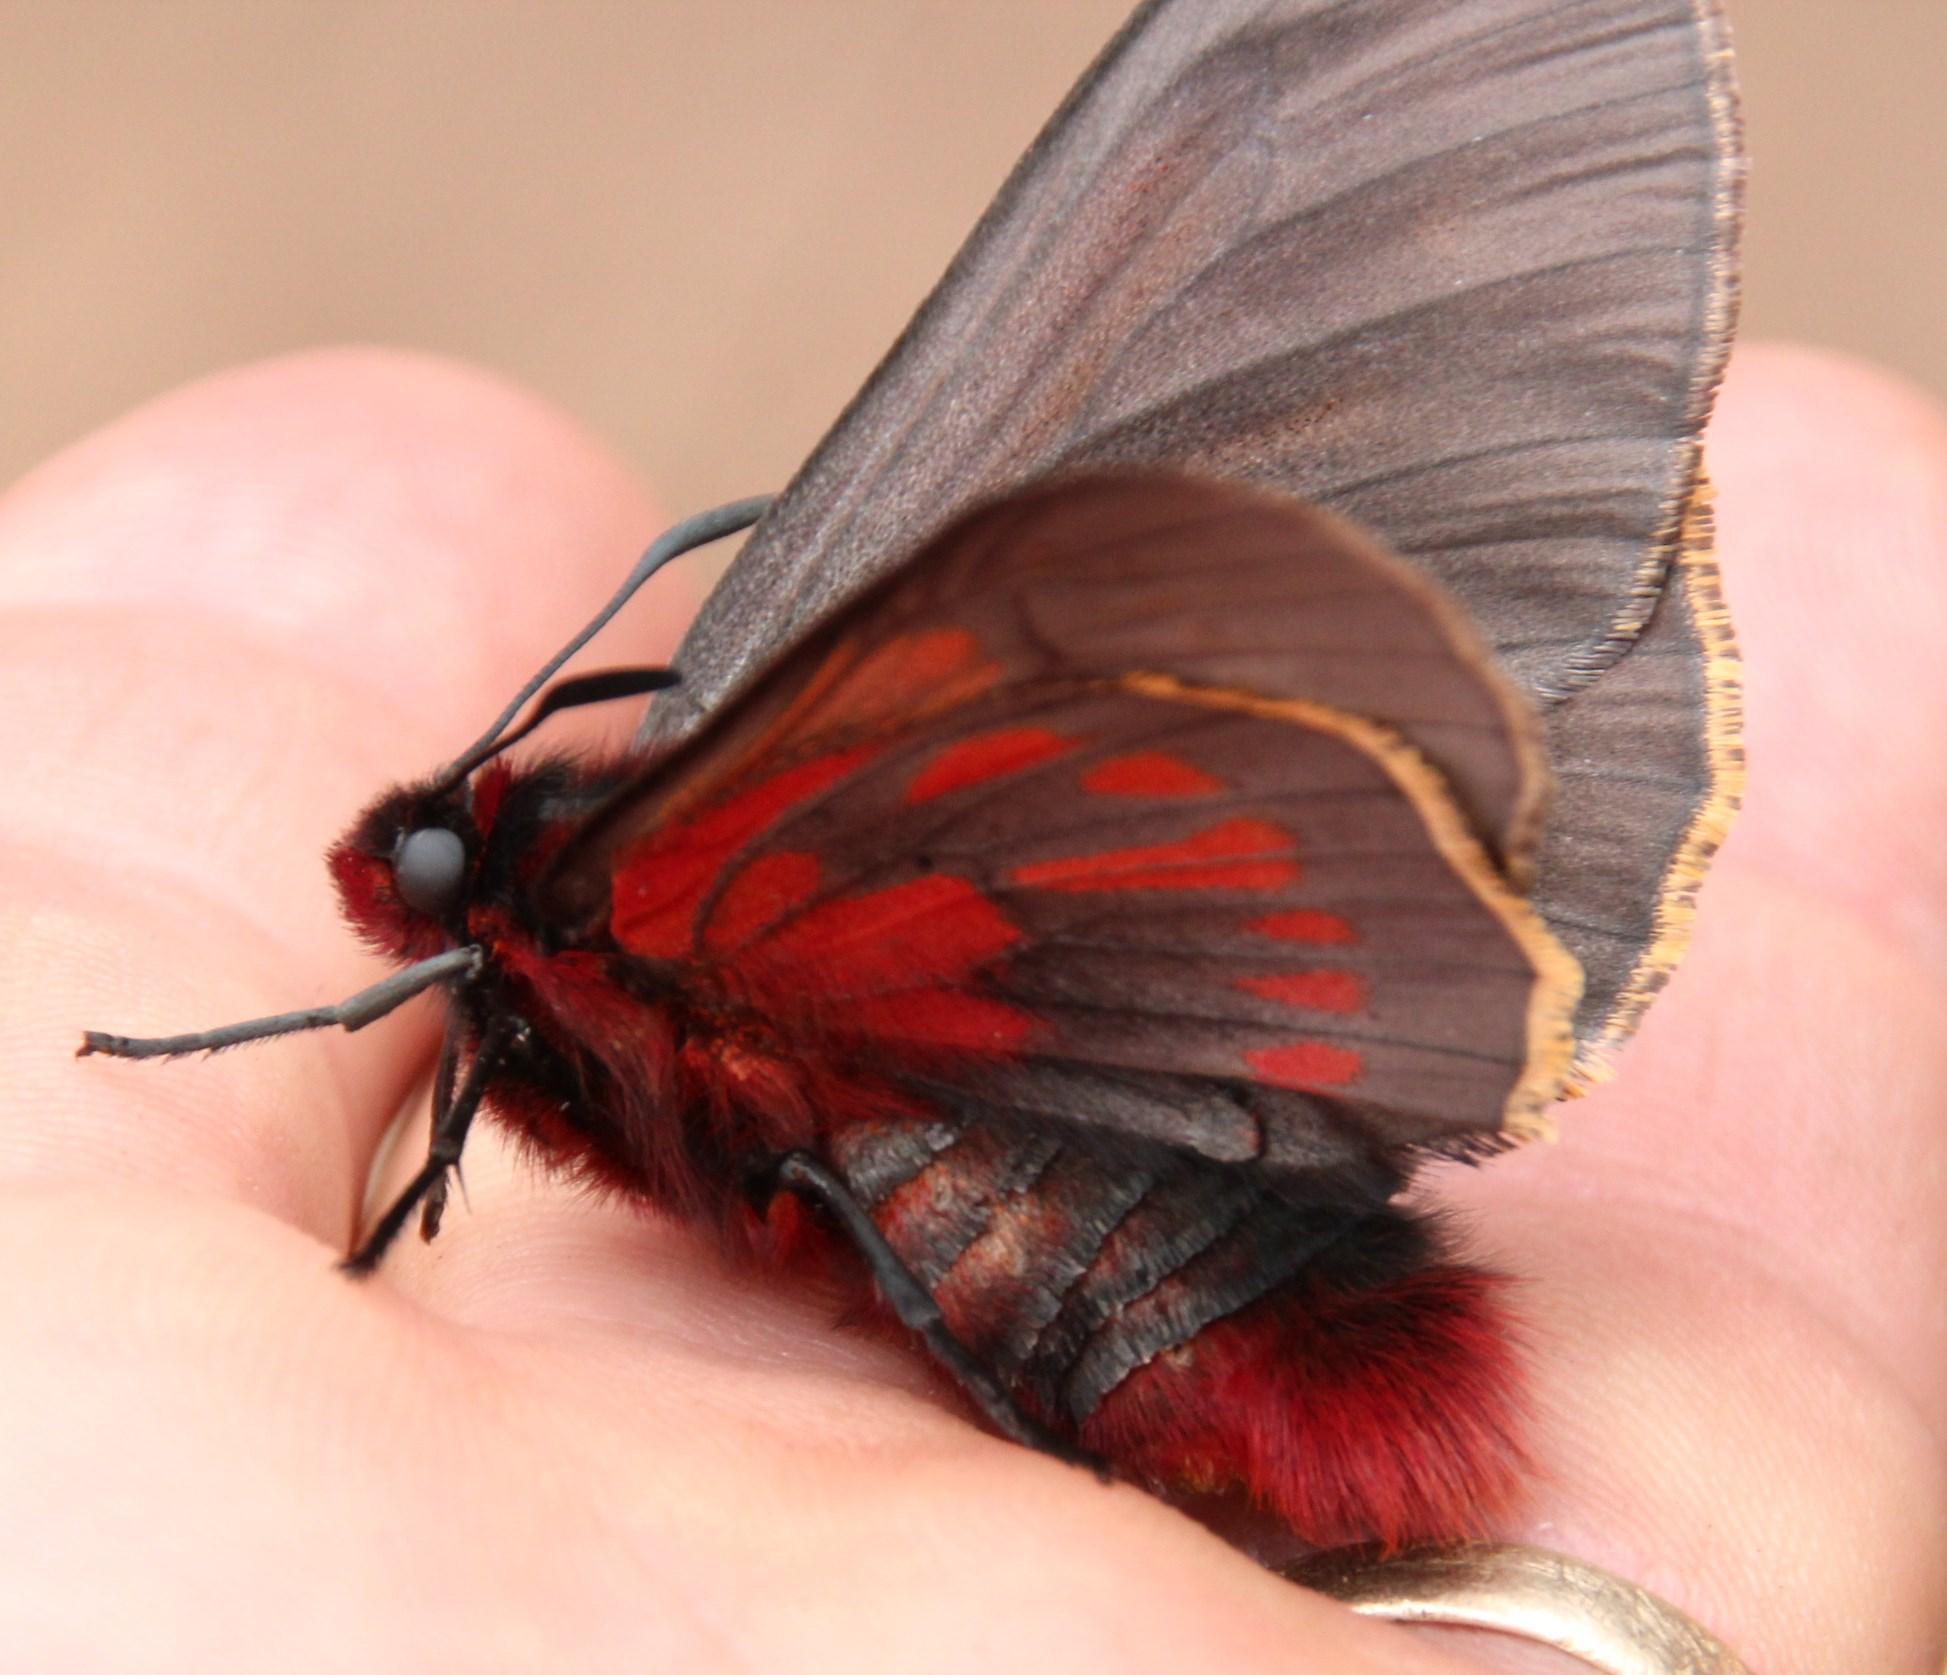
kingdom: Animalia
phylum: Arthropoda
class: Insecta
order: Lepidoptera
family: Hesperiidae
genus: Metardaris
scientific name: Metardaris cosinga
